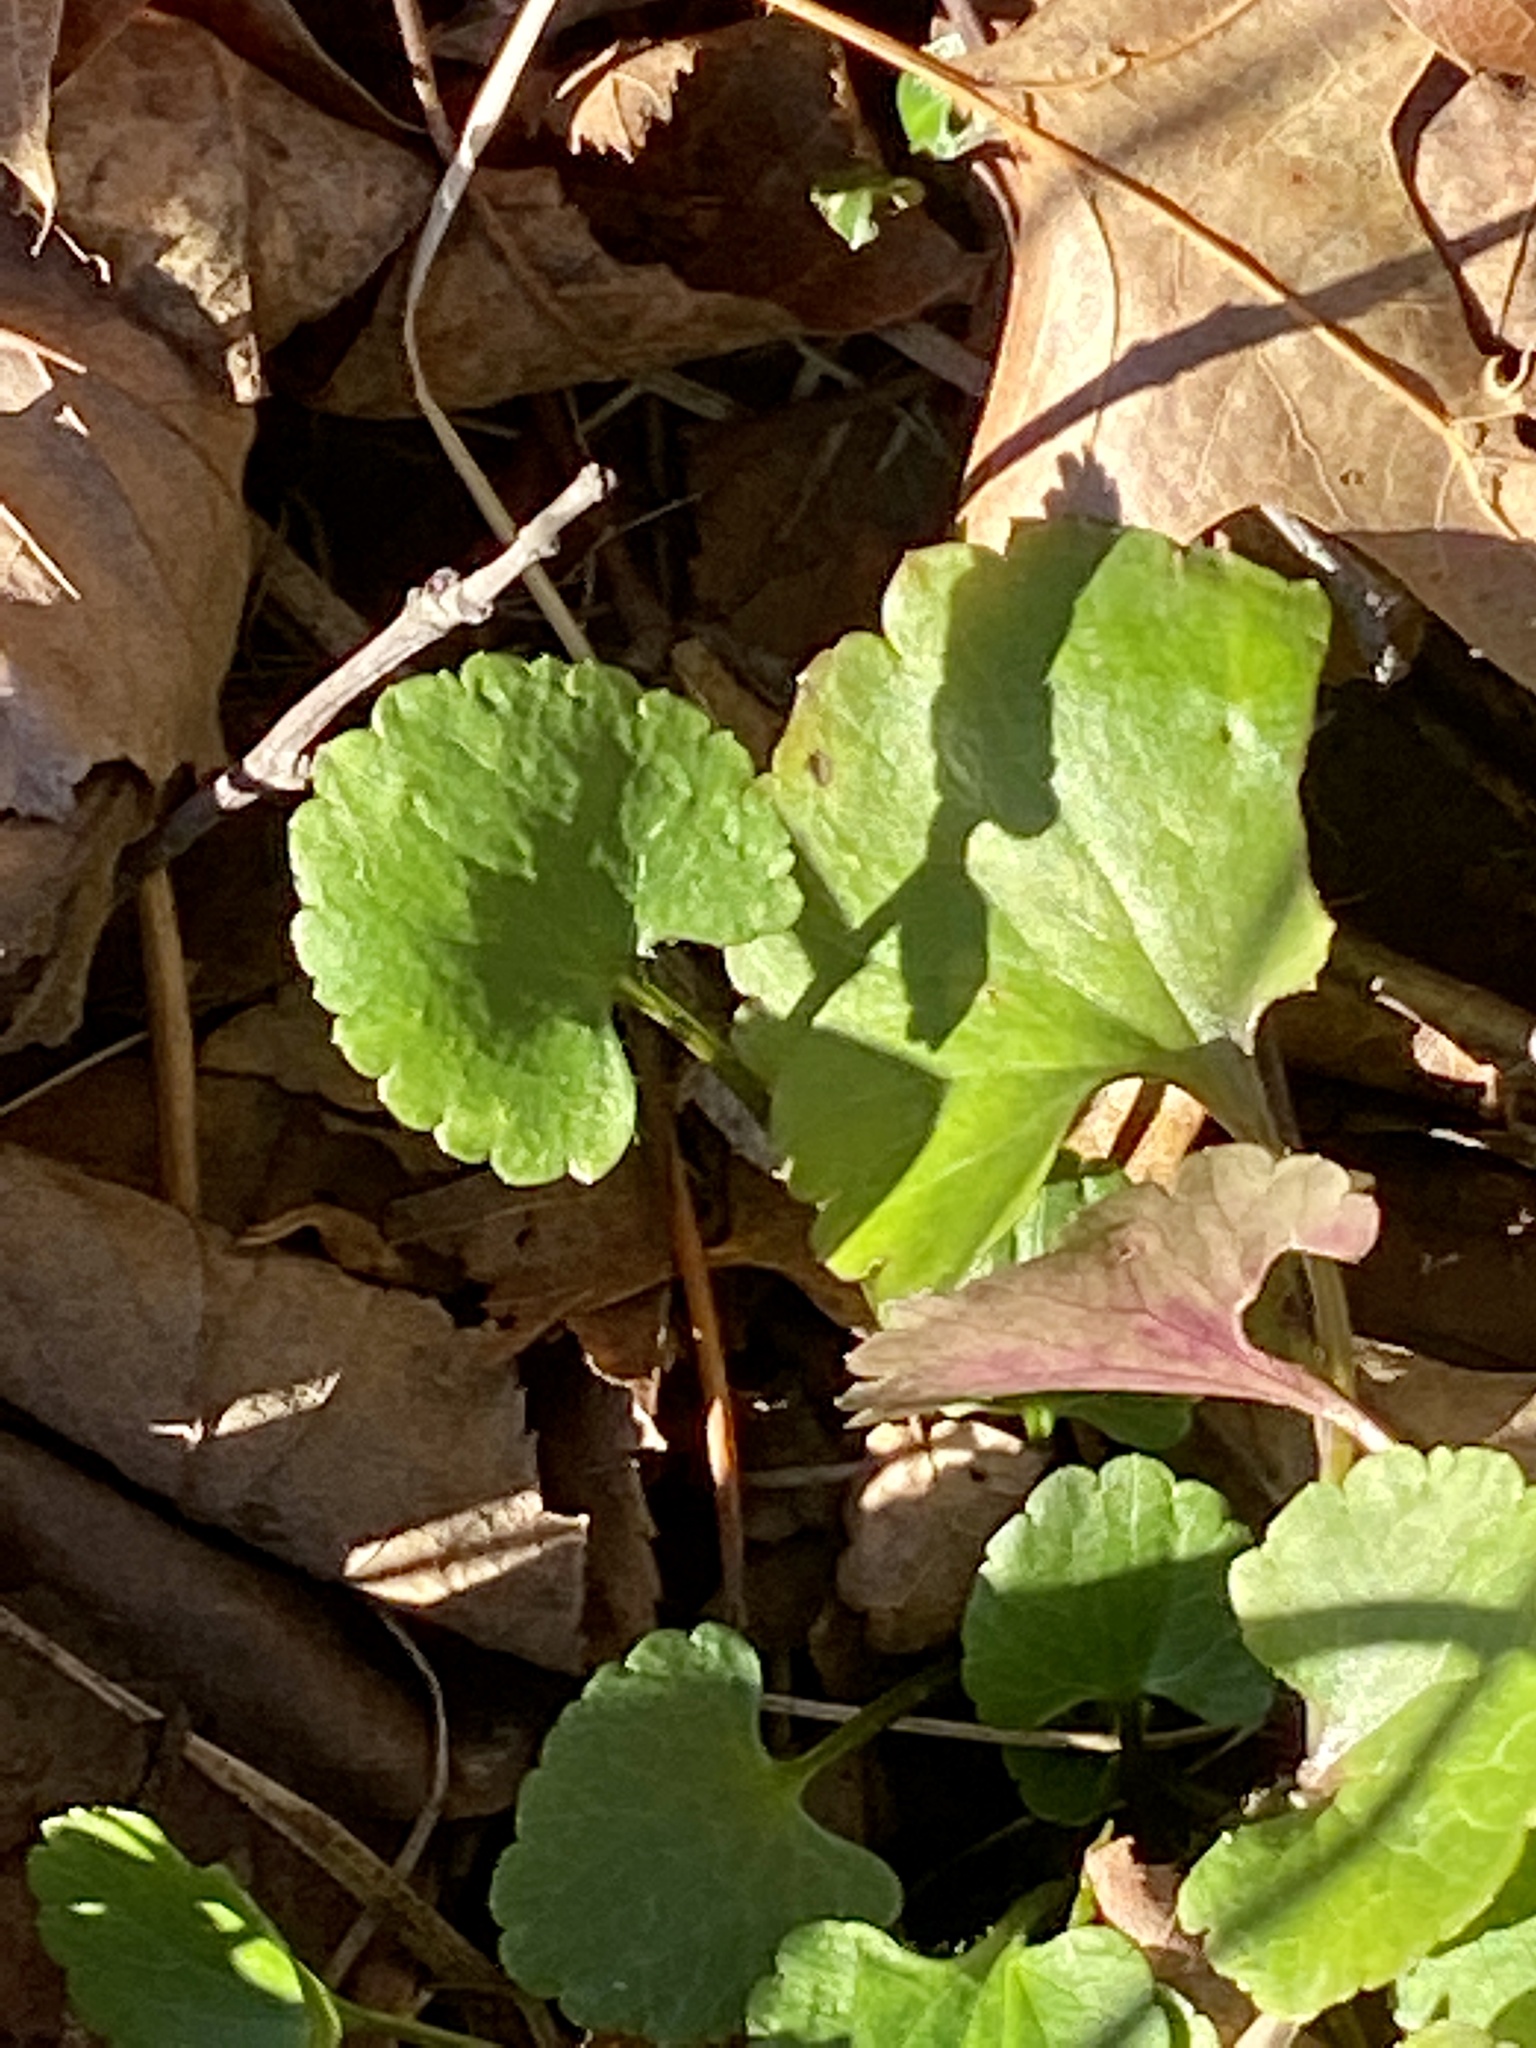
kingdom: Plantae
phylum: Tracheophyta
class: Magnoliopsida
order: Ranunculales
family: Ranunculaceae
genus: Ranunculus
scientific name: Ranunculus abortivus
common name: Early wood buttercup
